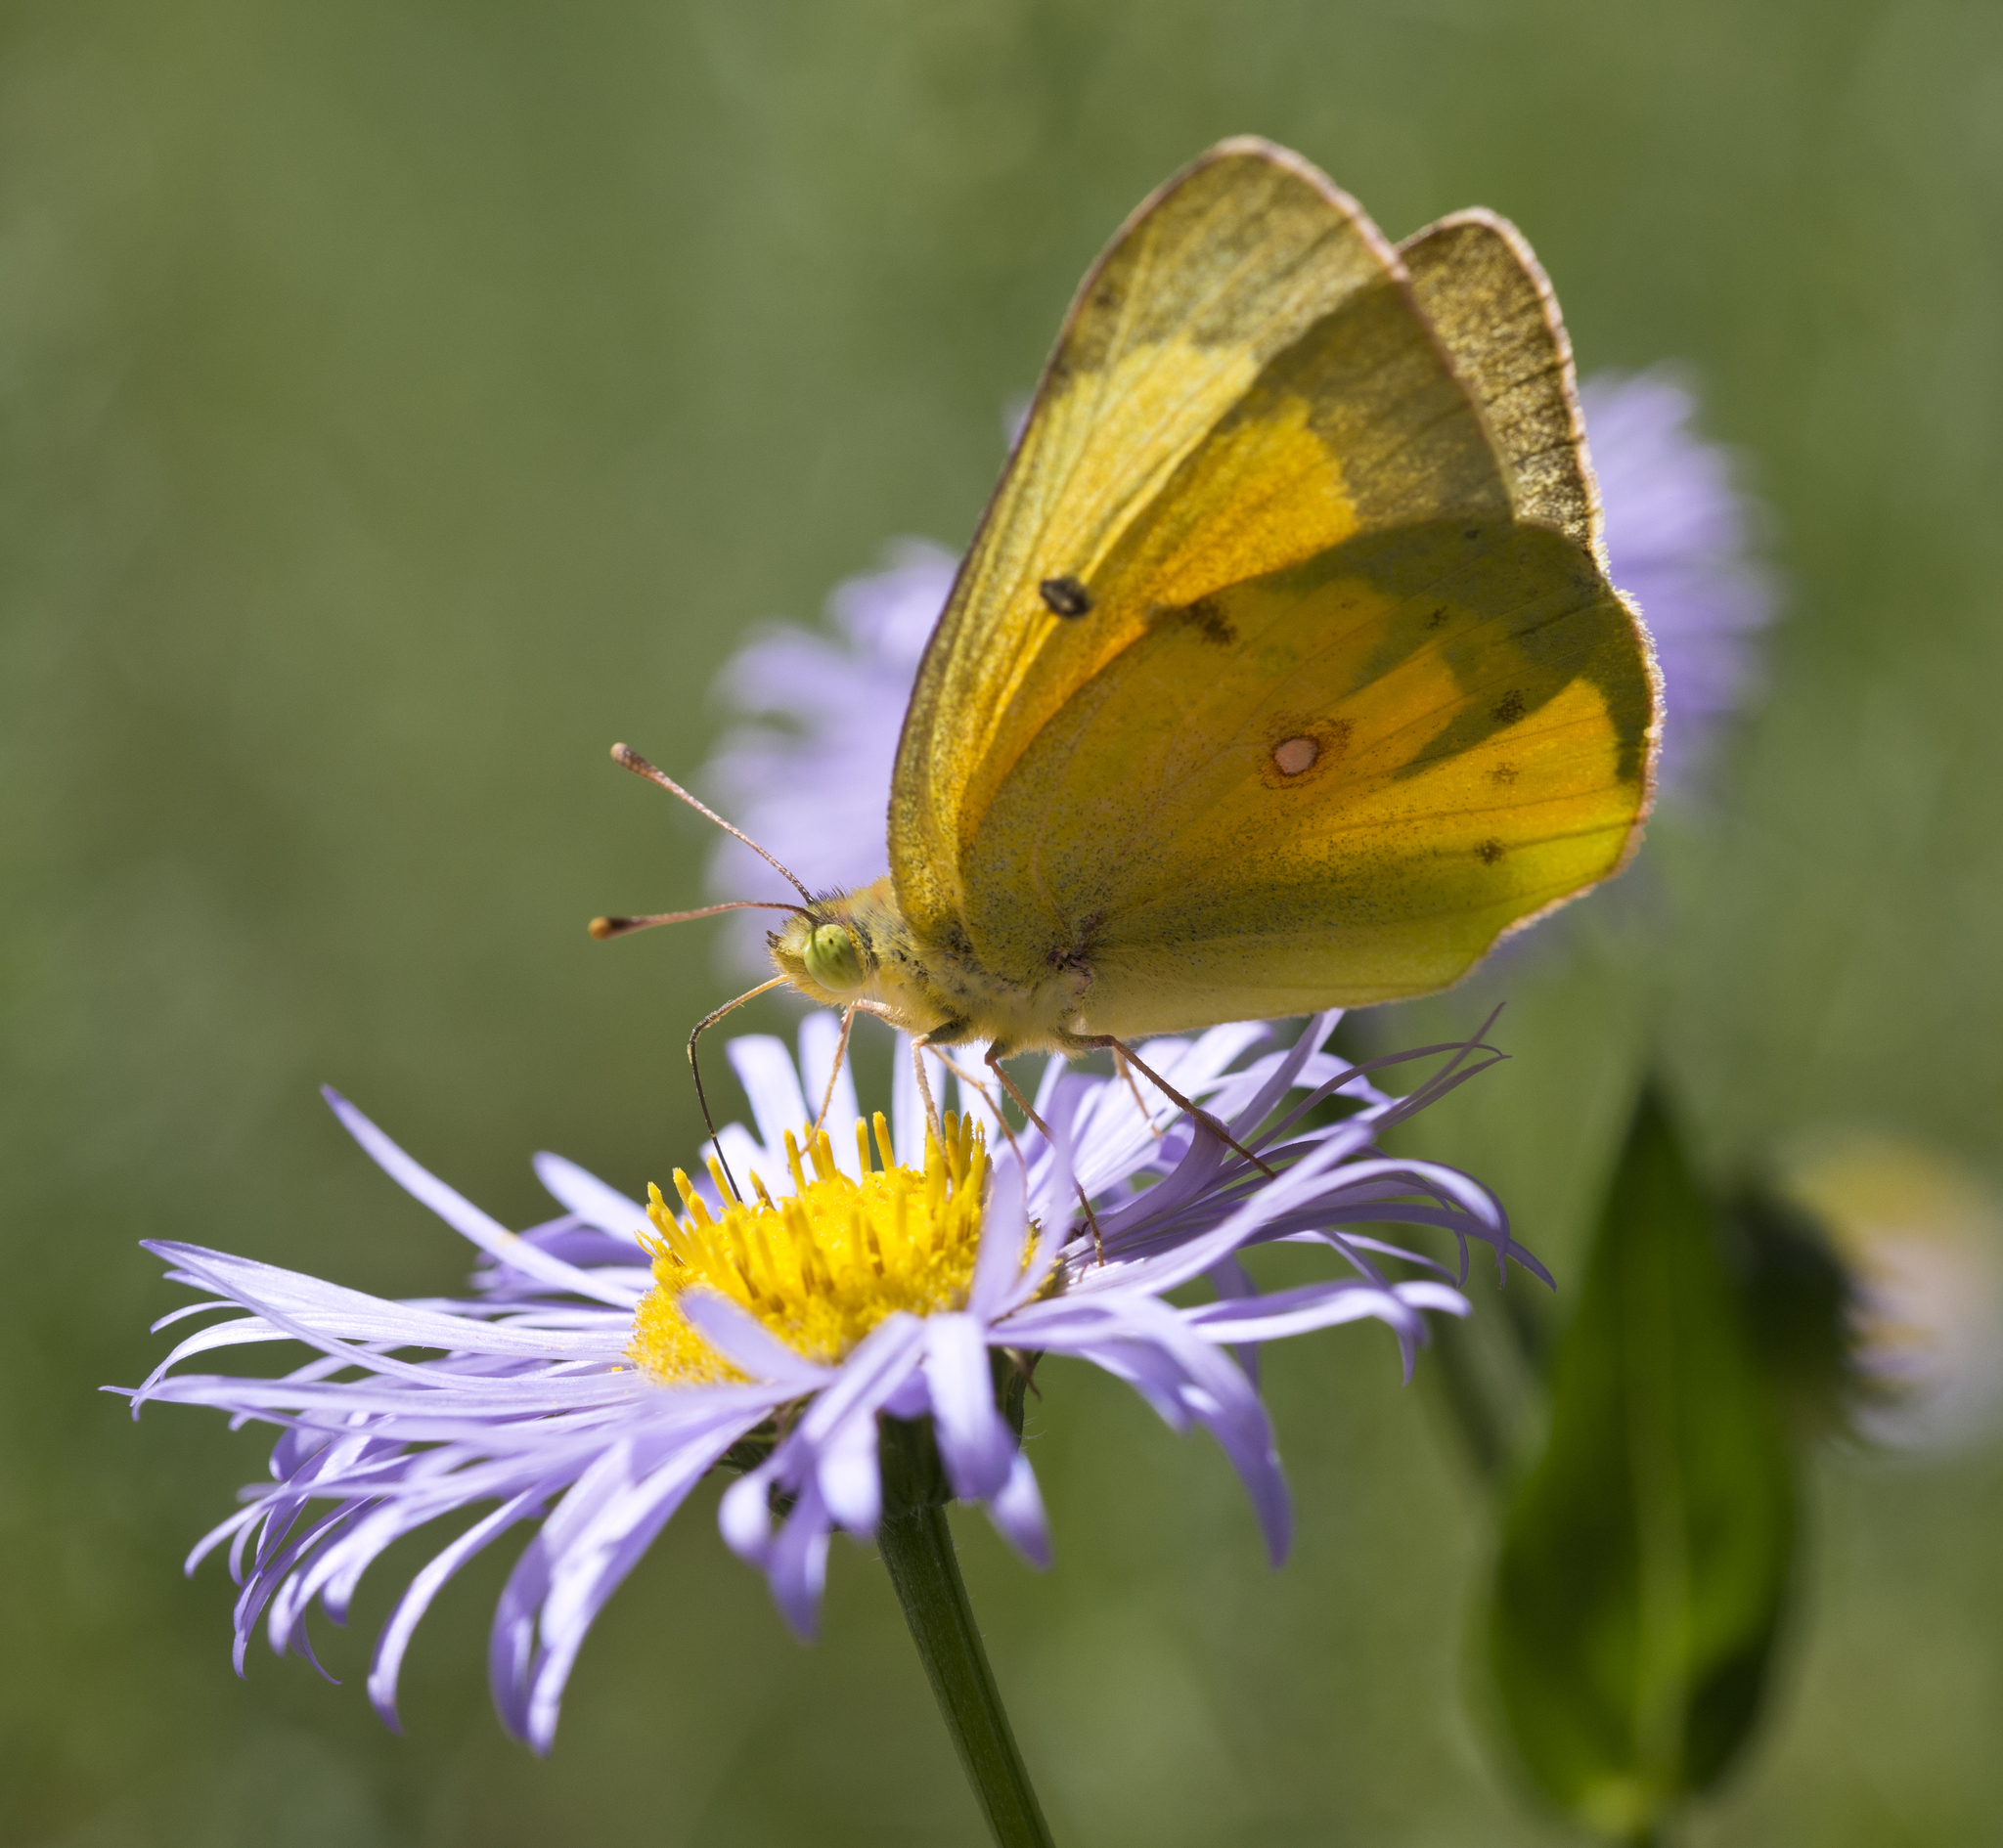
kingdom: Animalia
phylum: Arthropoda
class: Insecta
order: Lepidoptera
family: Pieridae
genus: Colias
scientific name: Colias eurytheme
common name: Alfalfa butterfly
